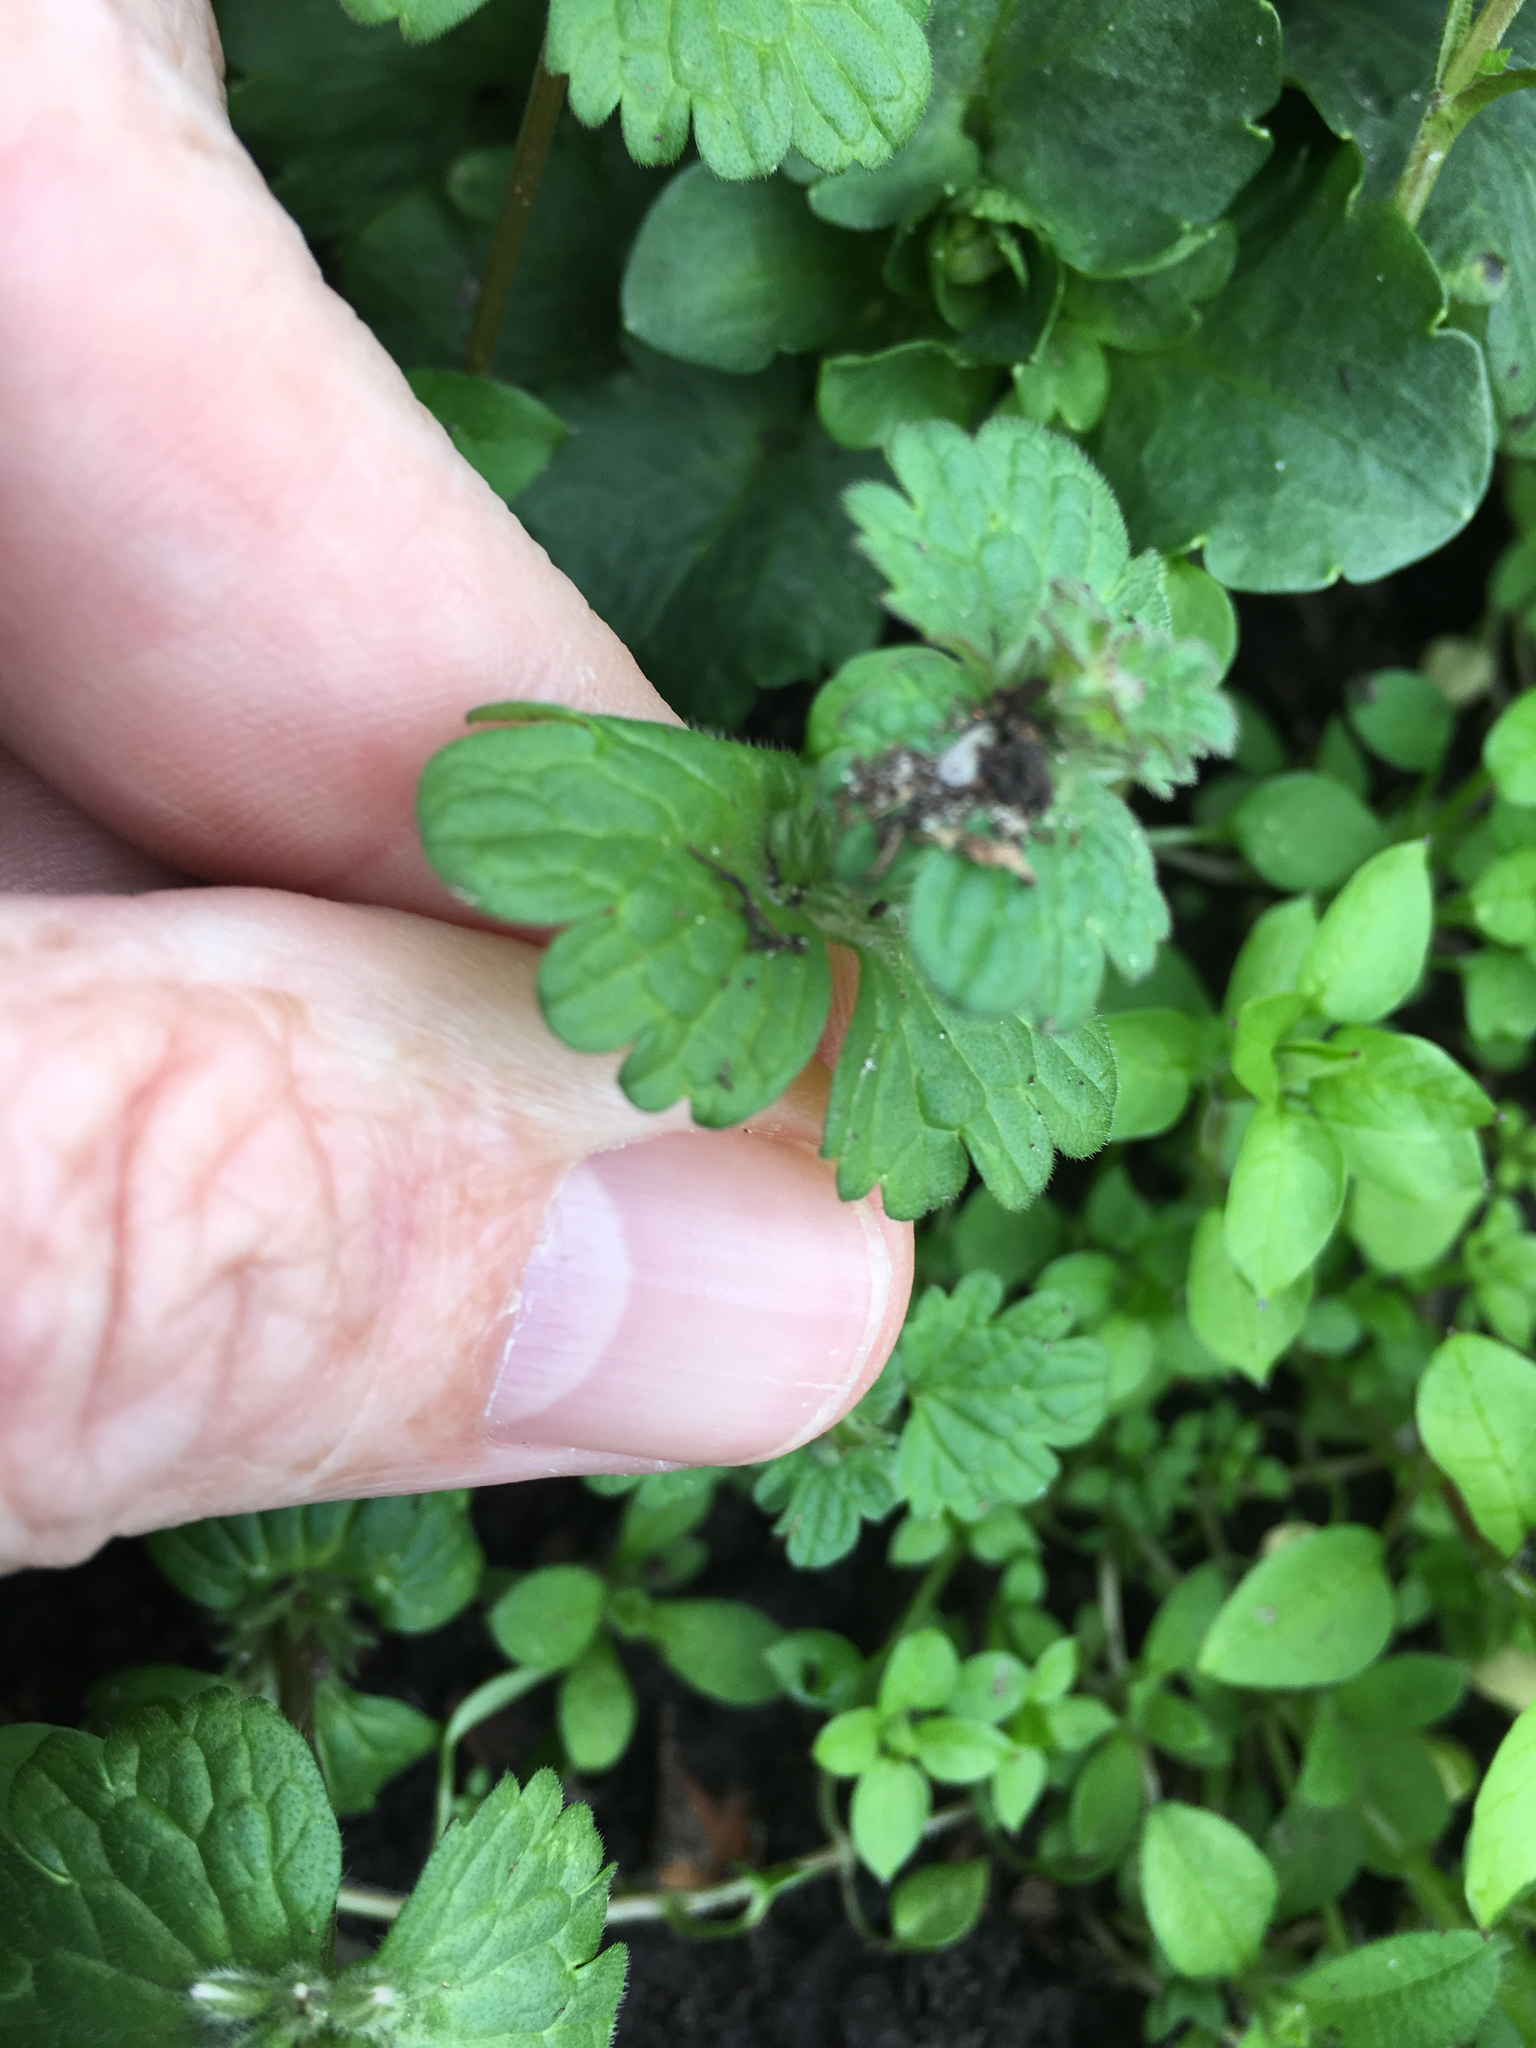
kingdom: Plantae
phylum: Tracheophyta
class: Magnoliopsida
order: Lamiales
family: Lamiaceae
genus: Lamium
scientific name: Lamium amplexicaule
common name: Henbit dead-nettle
